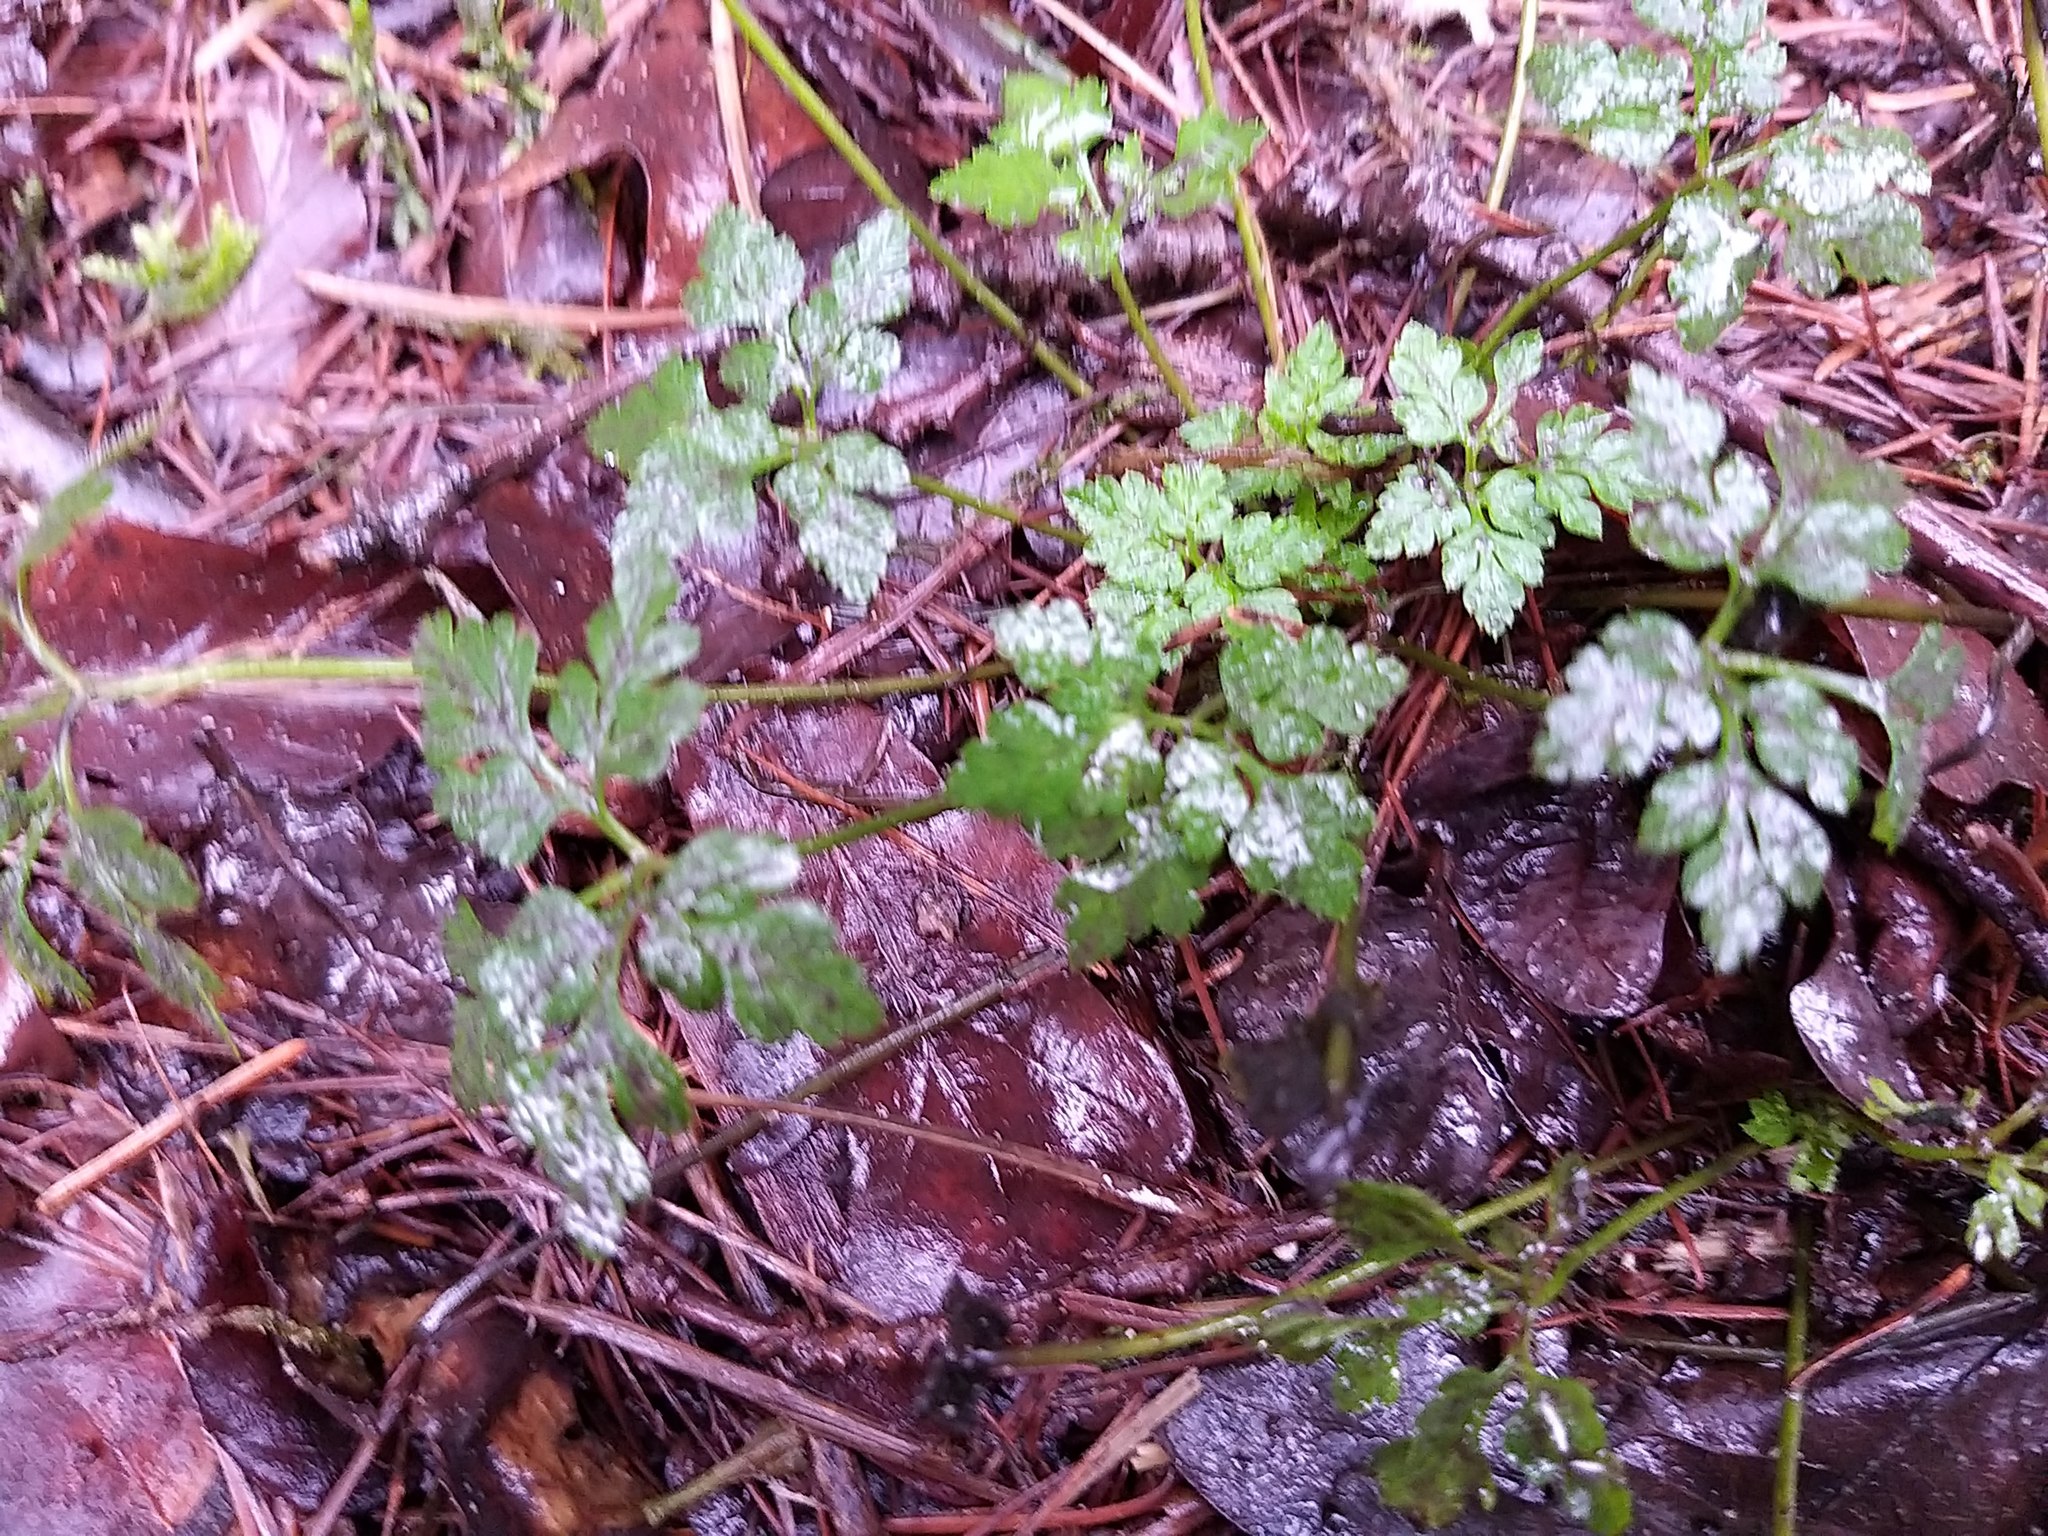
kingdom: Plantae
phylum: Tracheophyta
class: Magnoliopsida
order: Geraniales
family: Geraniaceae
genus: Geranium
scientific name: Geranium robertianum
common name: Herb-robert
